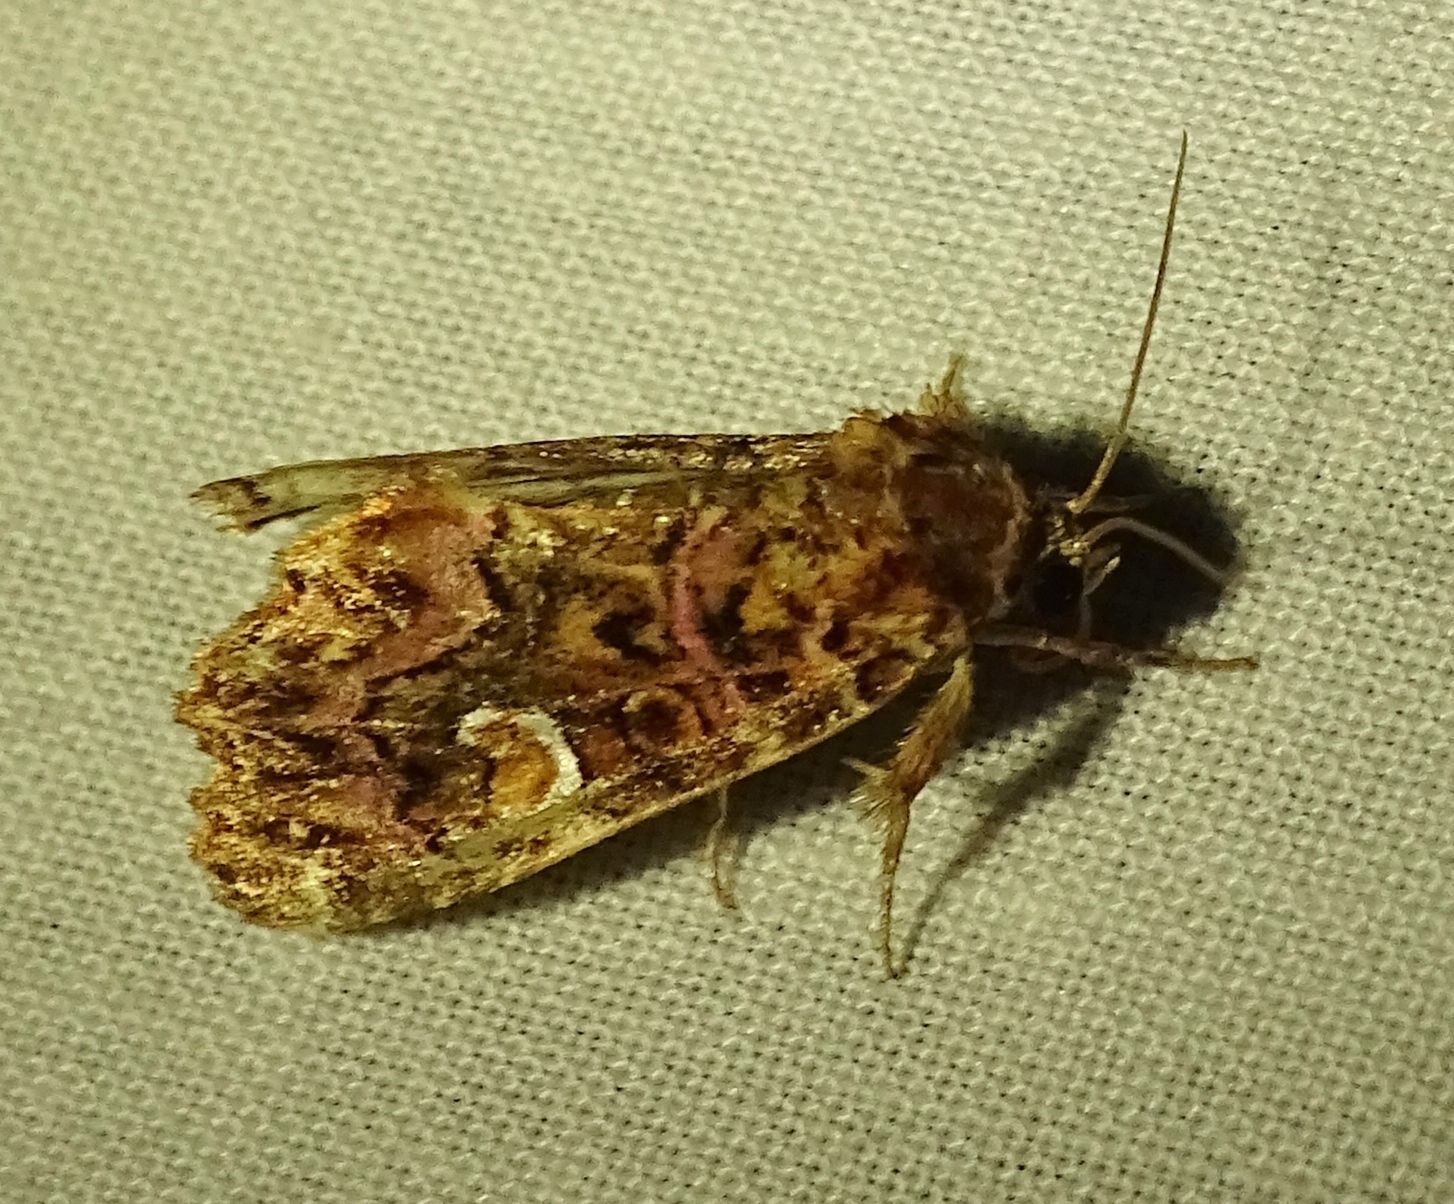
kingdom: Animalia
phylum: Arthropoda
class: Insecta
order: Lepidoptera
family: Noctuidae
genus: Callopistria
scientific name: Callopistria mollissima
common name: Pink-shaded fern moth
